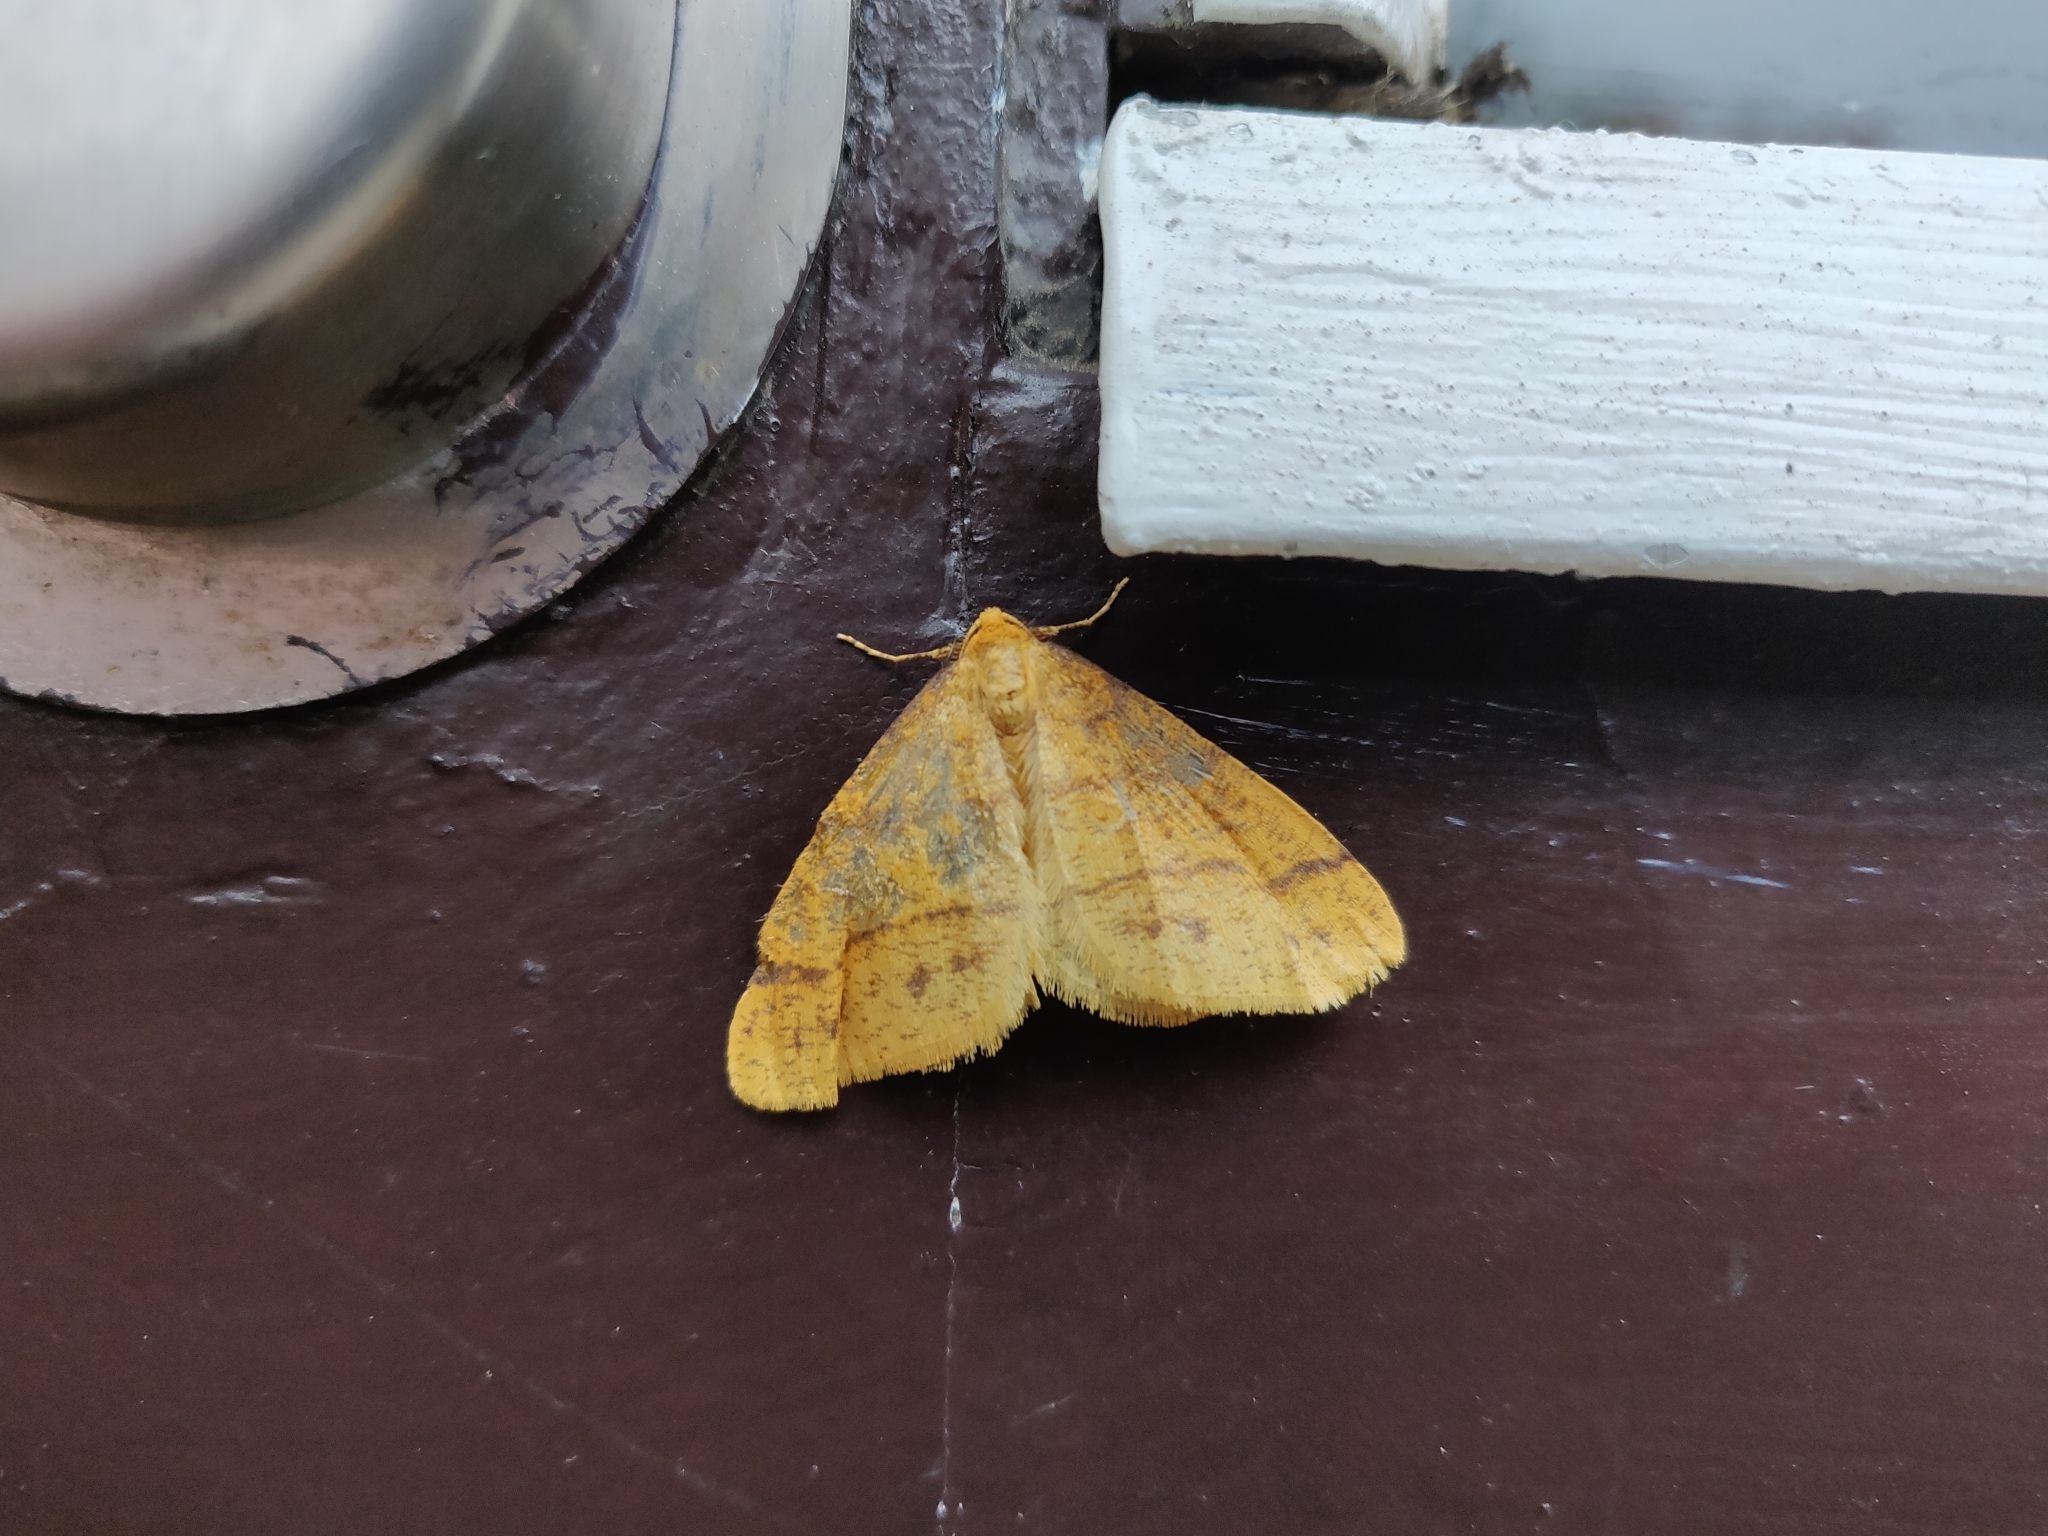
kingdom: Animalia
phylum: Arthropoda
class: Insecta
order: Lepidoptera
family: Geometridae
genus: Agriopis
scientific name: Agriopis aurantiaria
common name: Scarce umber
